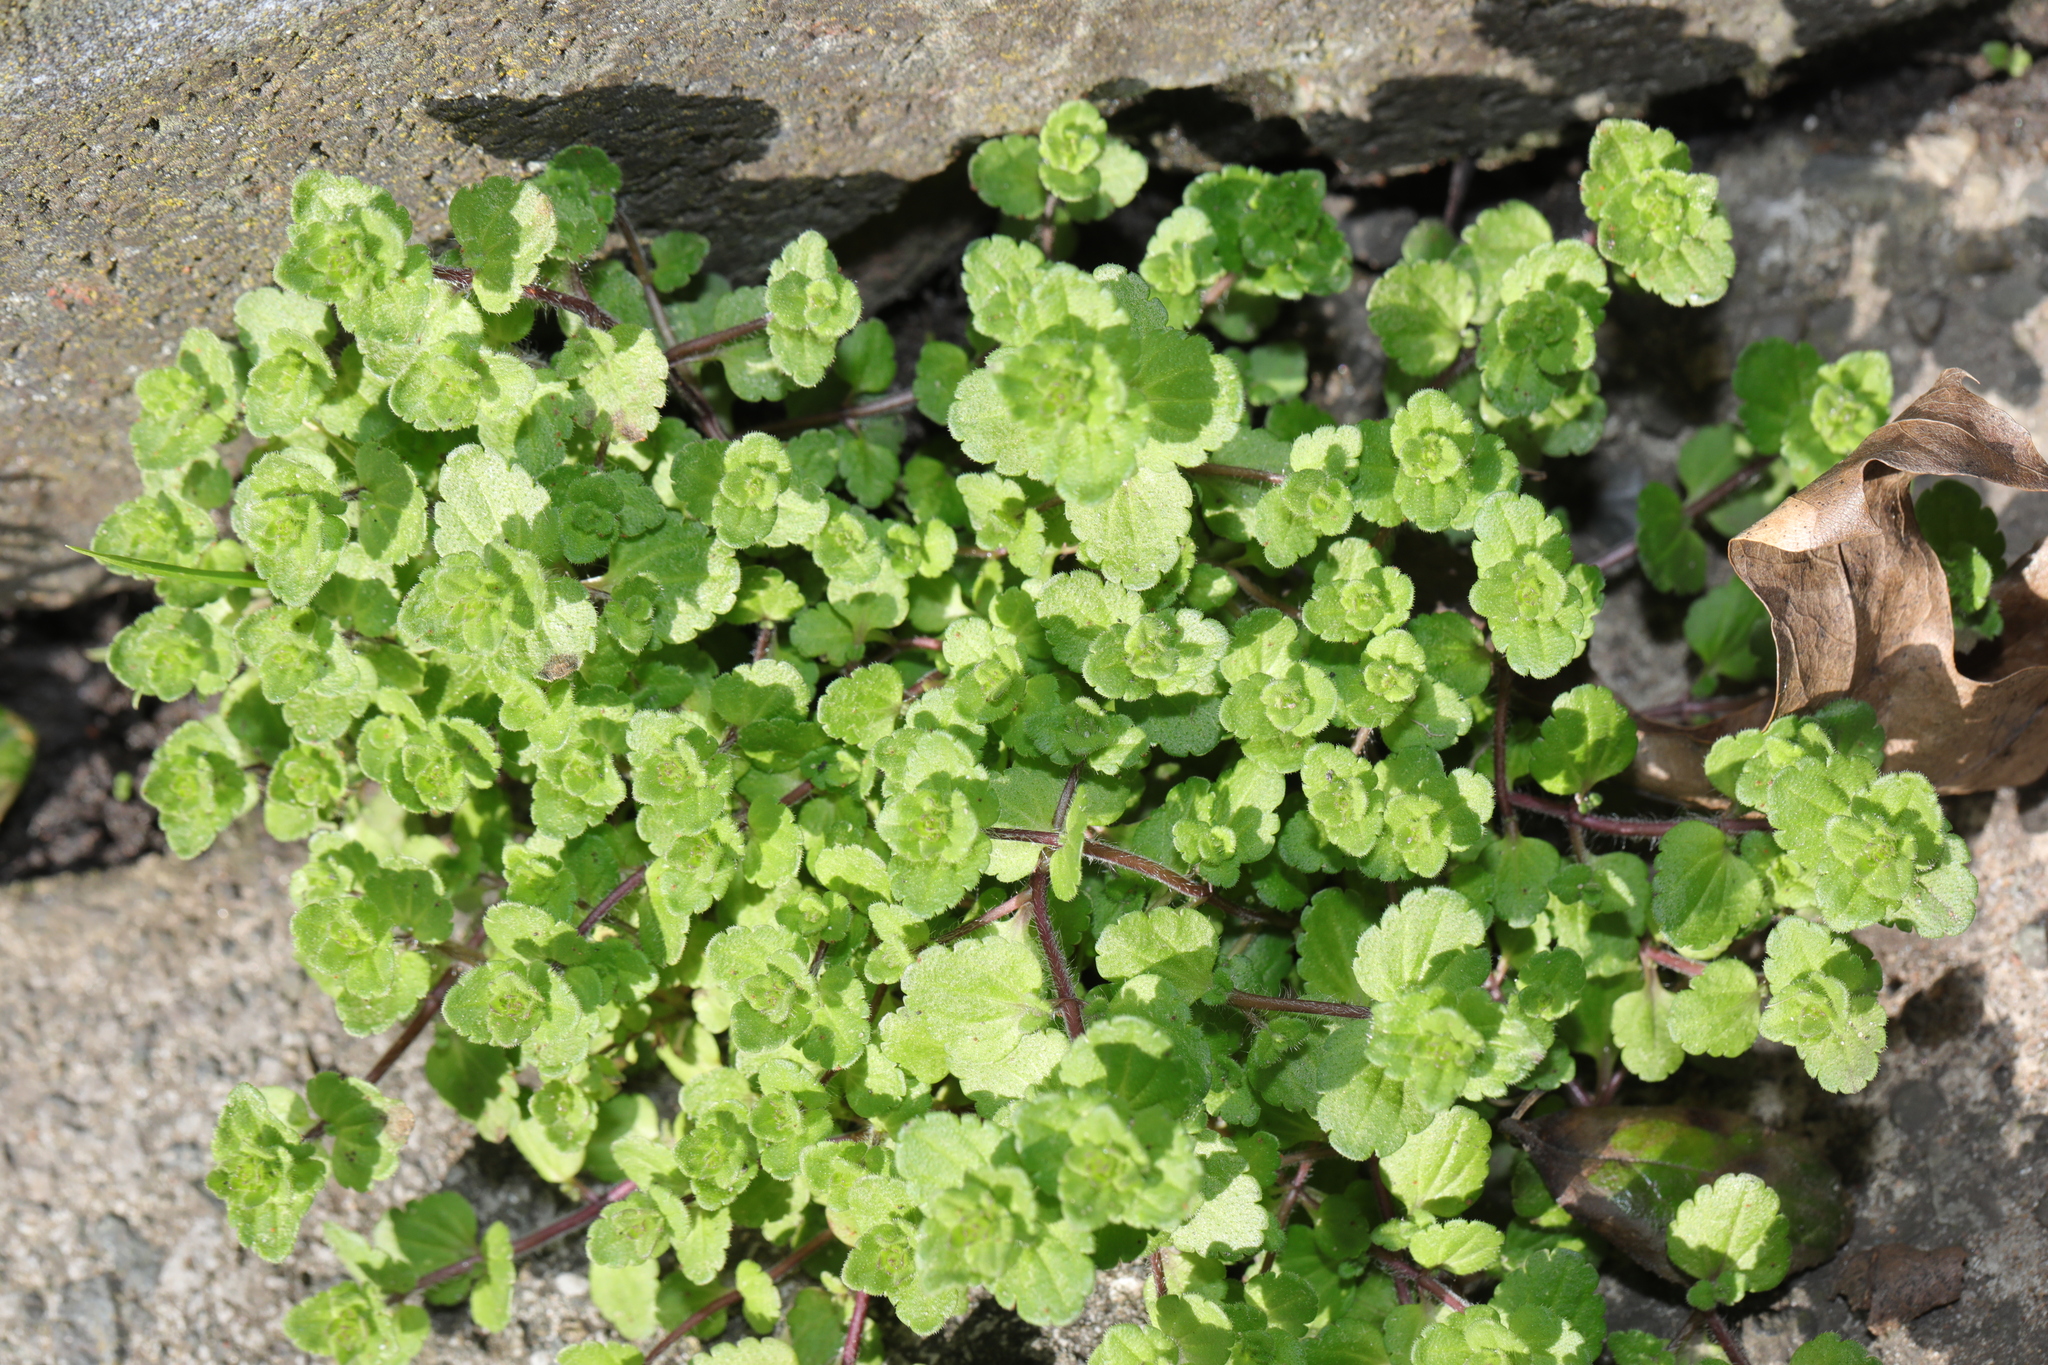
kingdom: Plantae
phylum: Tracheophyta
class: Magnoliopsida
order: Lamiales
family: Plantaginaceae
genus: Veronica
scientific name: Veronica arvensis
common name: Corn speedwell
